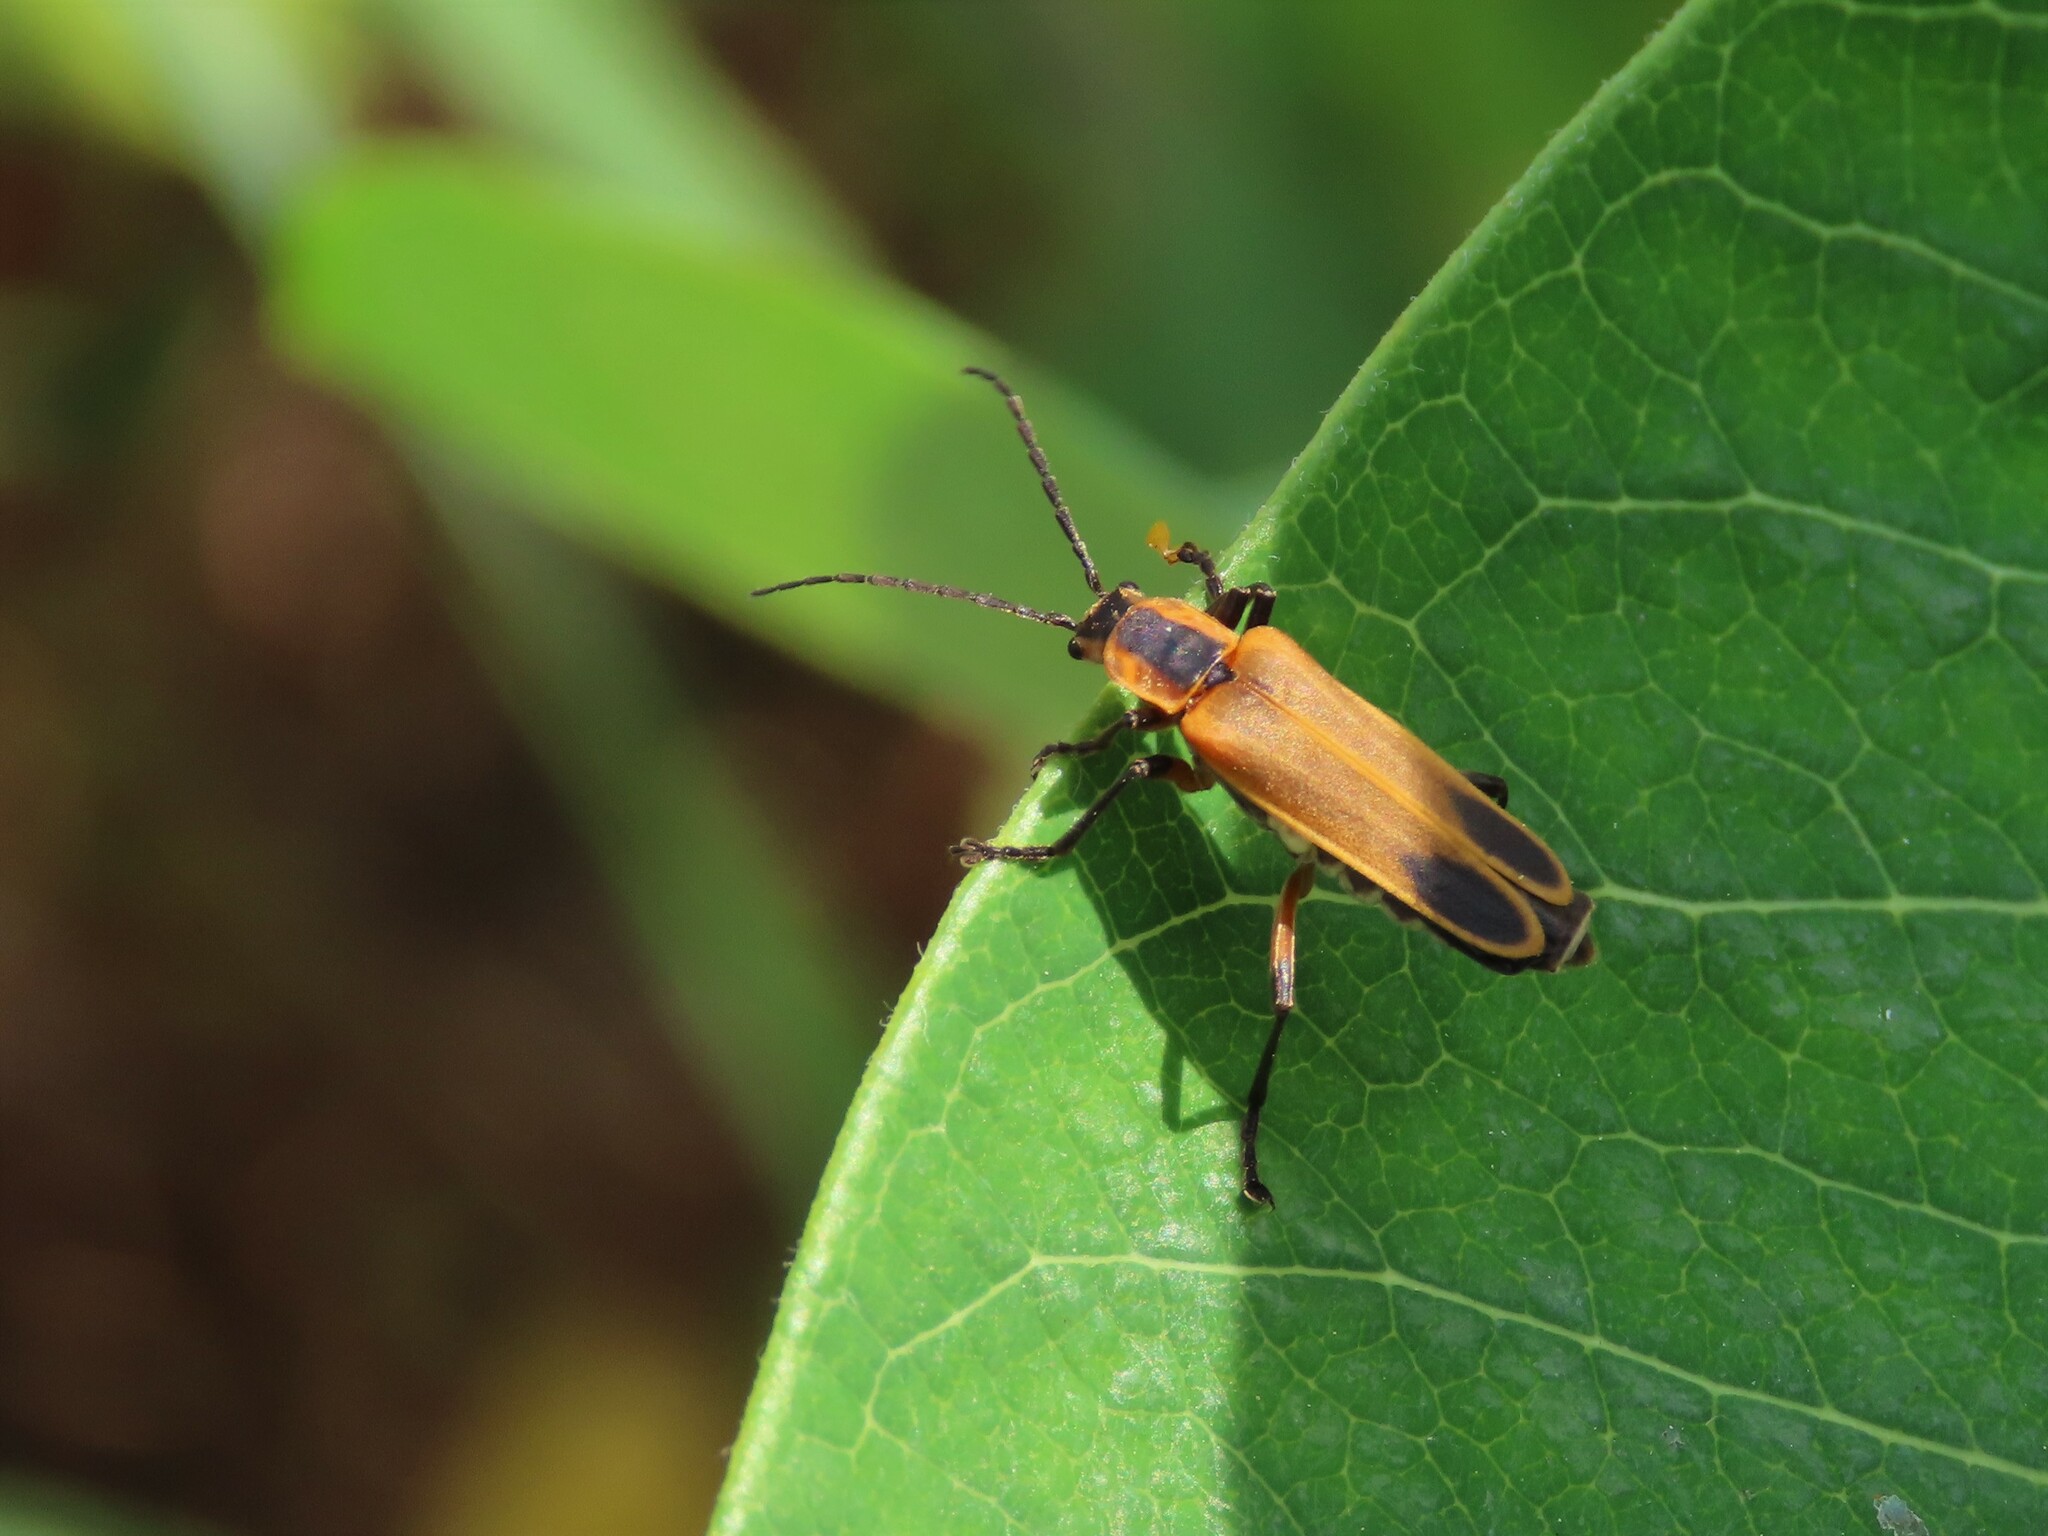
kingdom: Animalia
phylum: Arthropoda
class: Insecta
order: Coleoptera
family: Cantharidae
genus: Chauliognathus
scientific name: Chauliognathus marginatus
